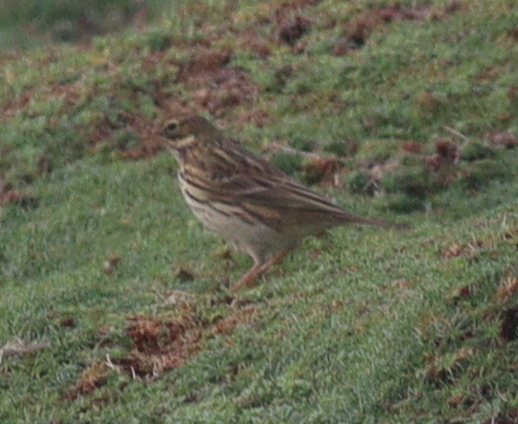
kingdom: Animalia
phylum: Chordata
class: Aves
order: Passeriformes
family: Motacillidae
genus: Anthus
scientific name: Anthus pratensis
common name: Meadow pipit
